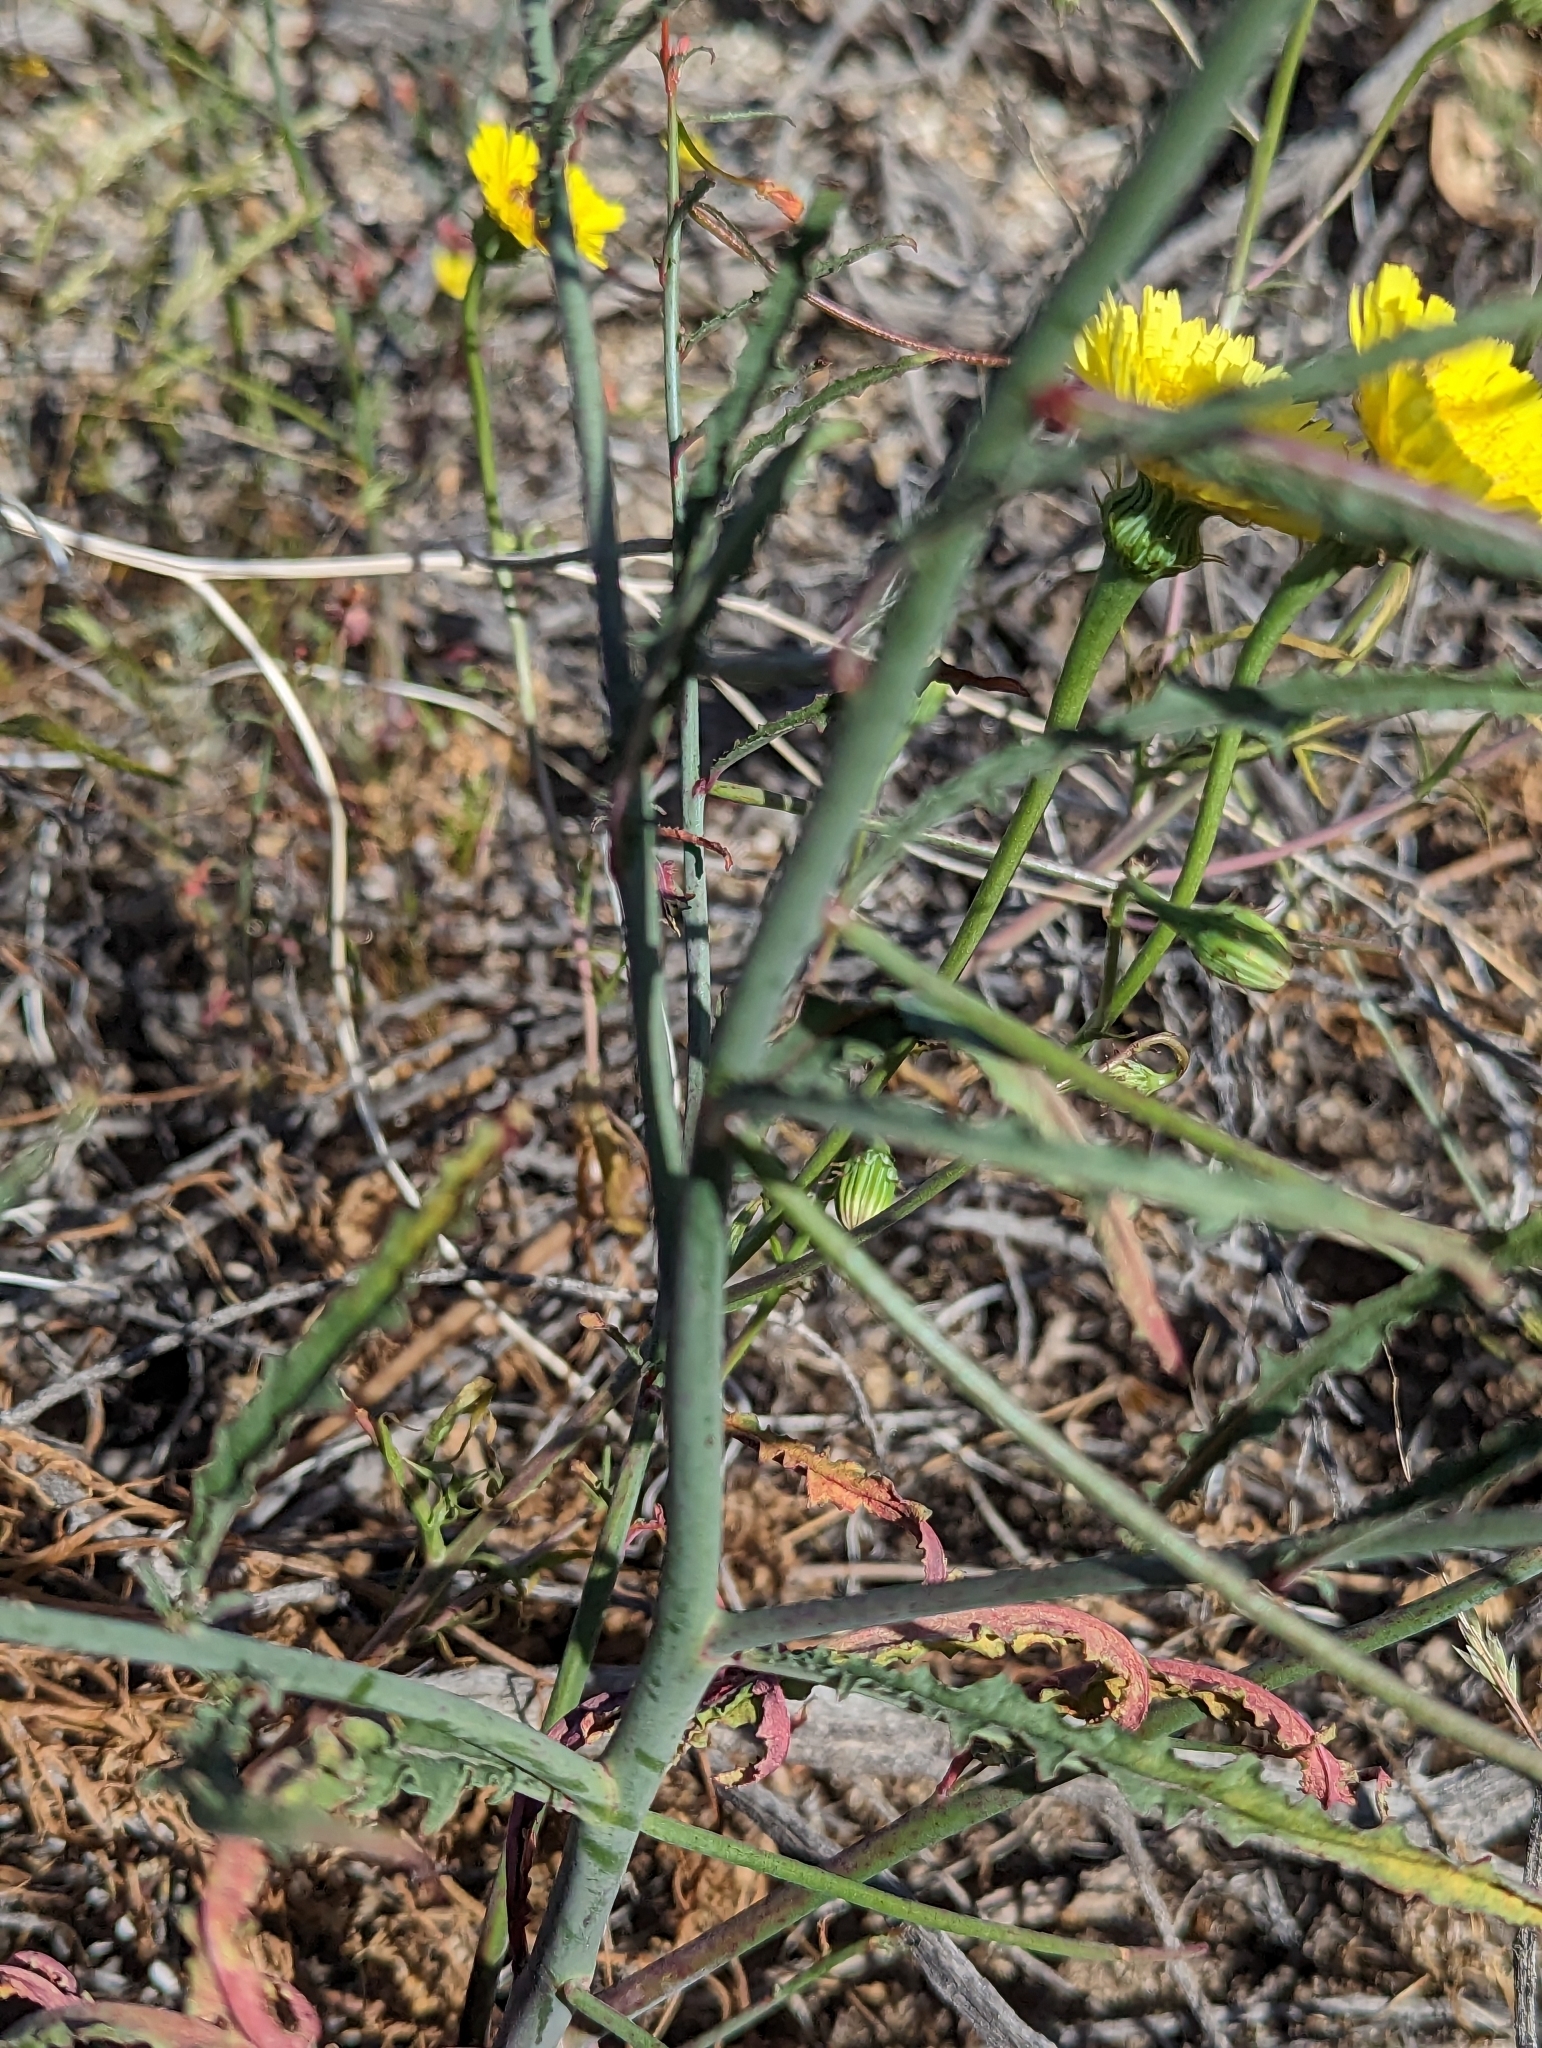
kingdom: Plantae
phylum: Tracheophyta
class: Magnoliopsida
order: Myrtales
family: Onagraceae
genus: Eulobus
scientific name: Eulobus californicus
